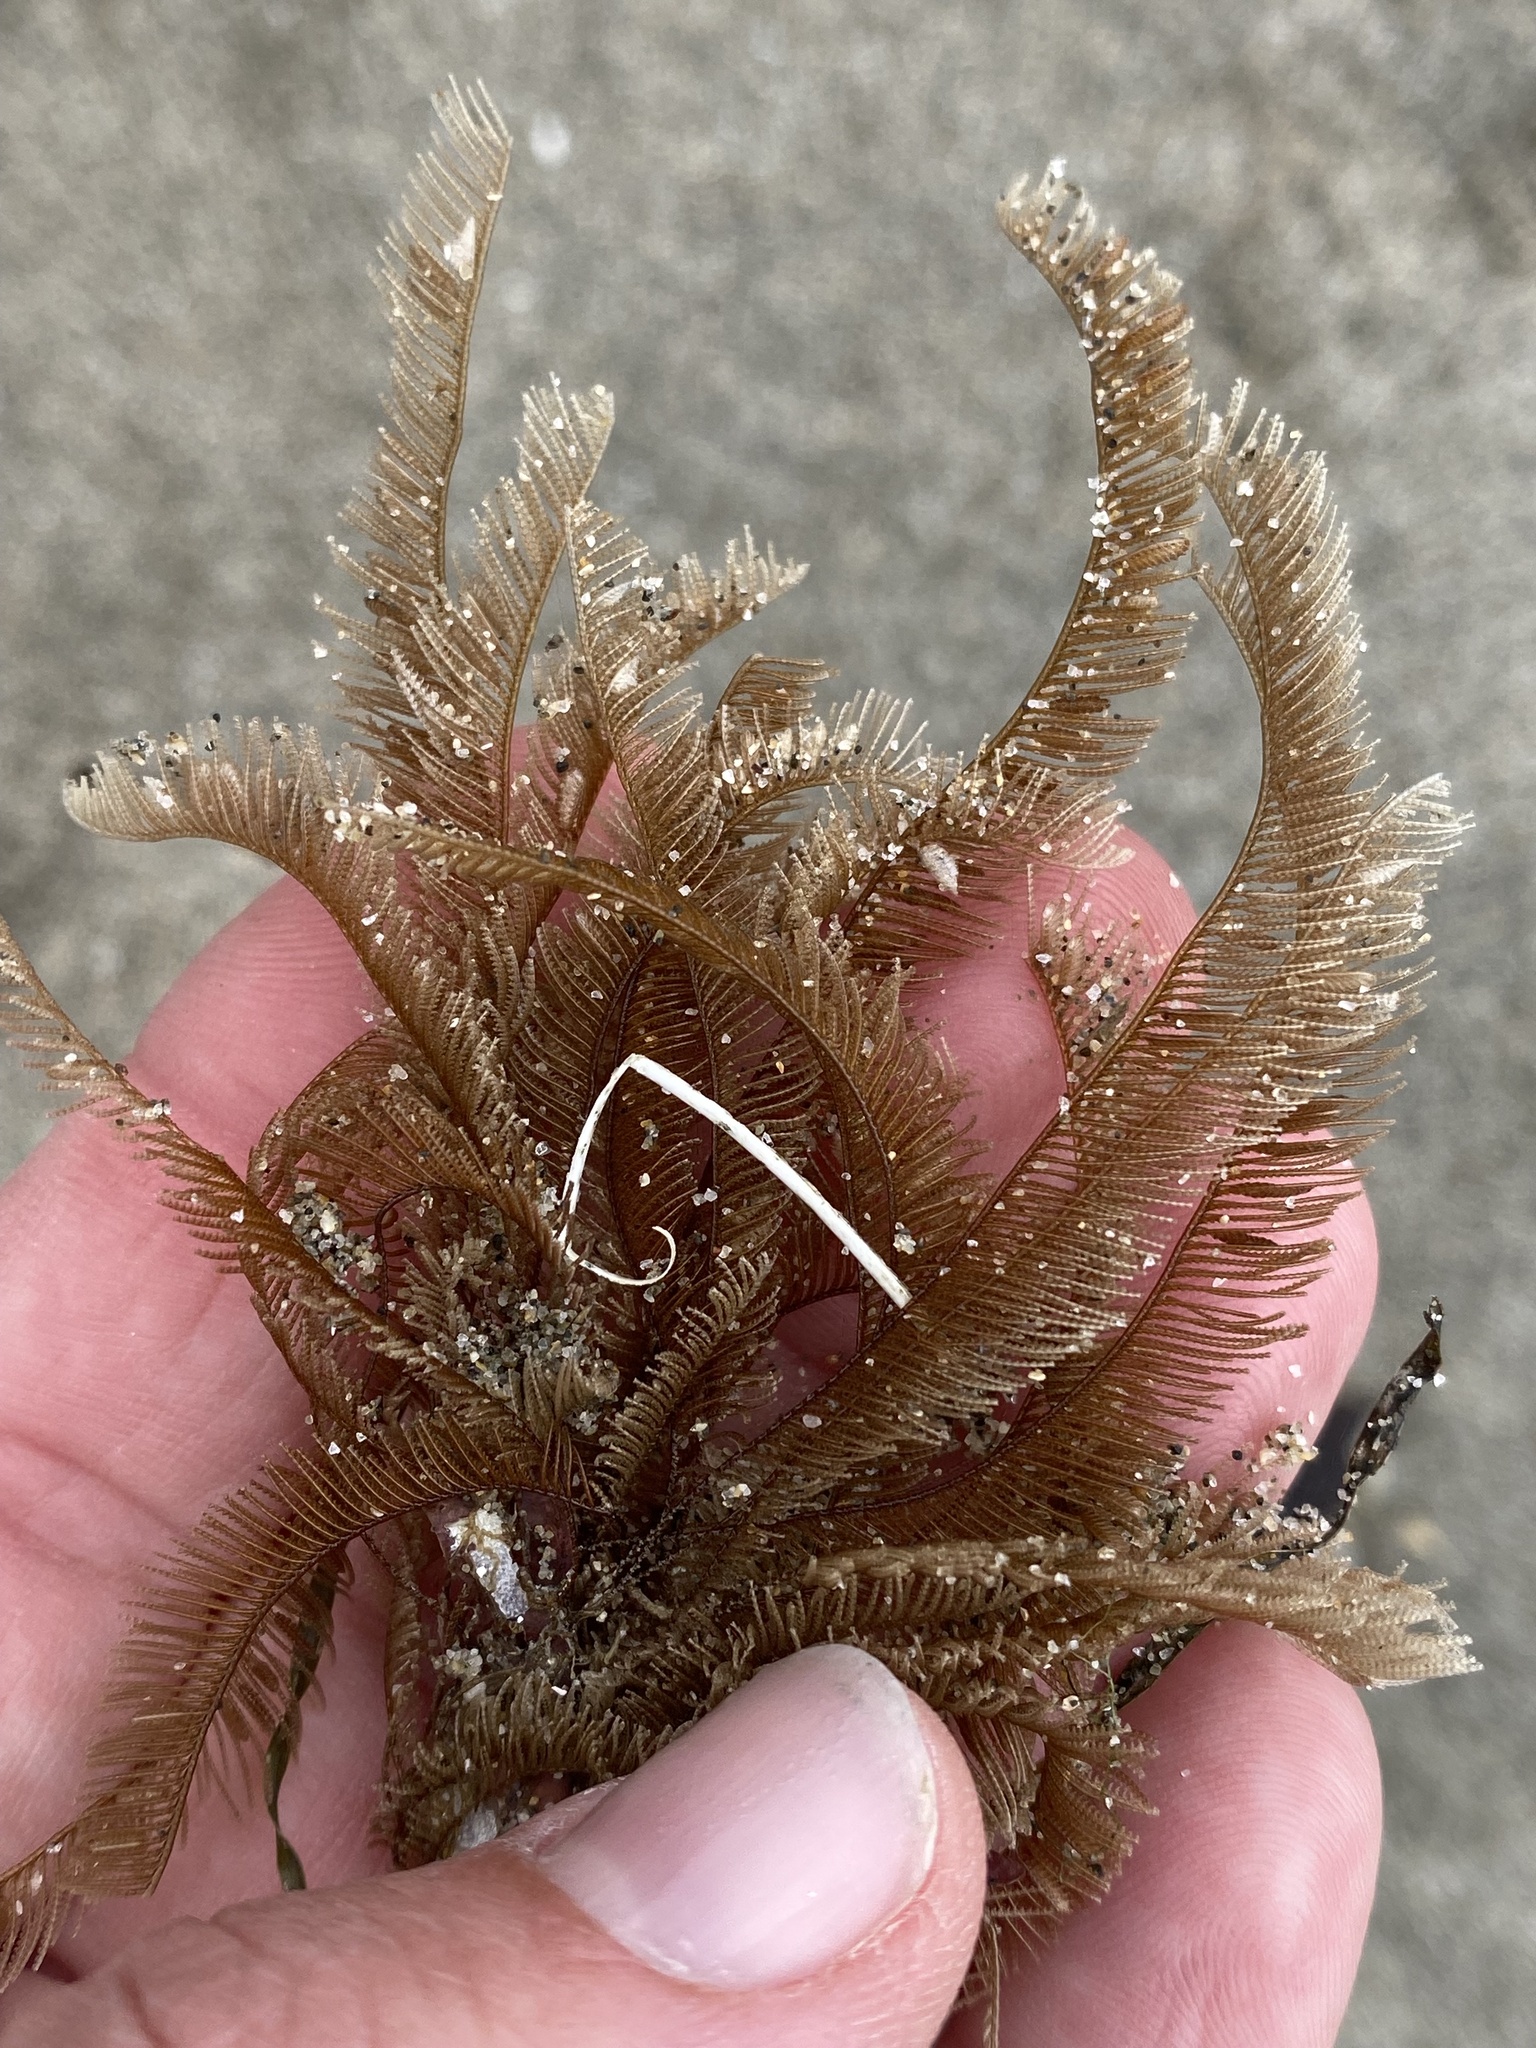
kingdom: Animalia
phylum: Cnidaria
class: Hydrozoa
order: Leptothecata
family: Aglaopheniidae
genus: Aglaophenia
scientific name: Aglaophenia
